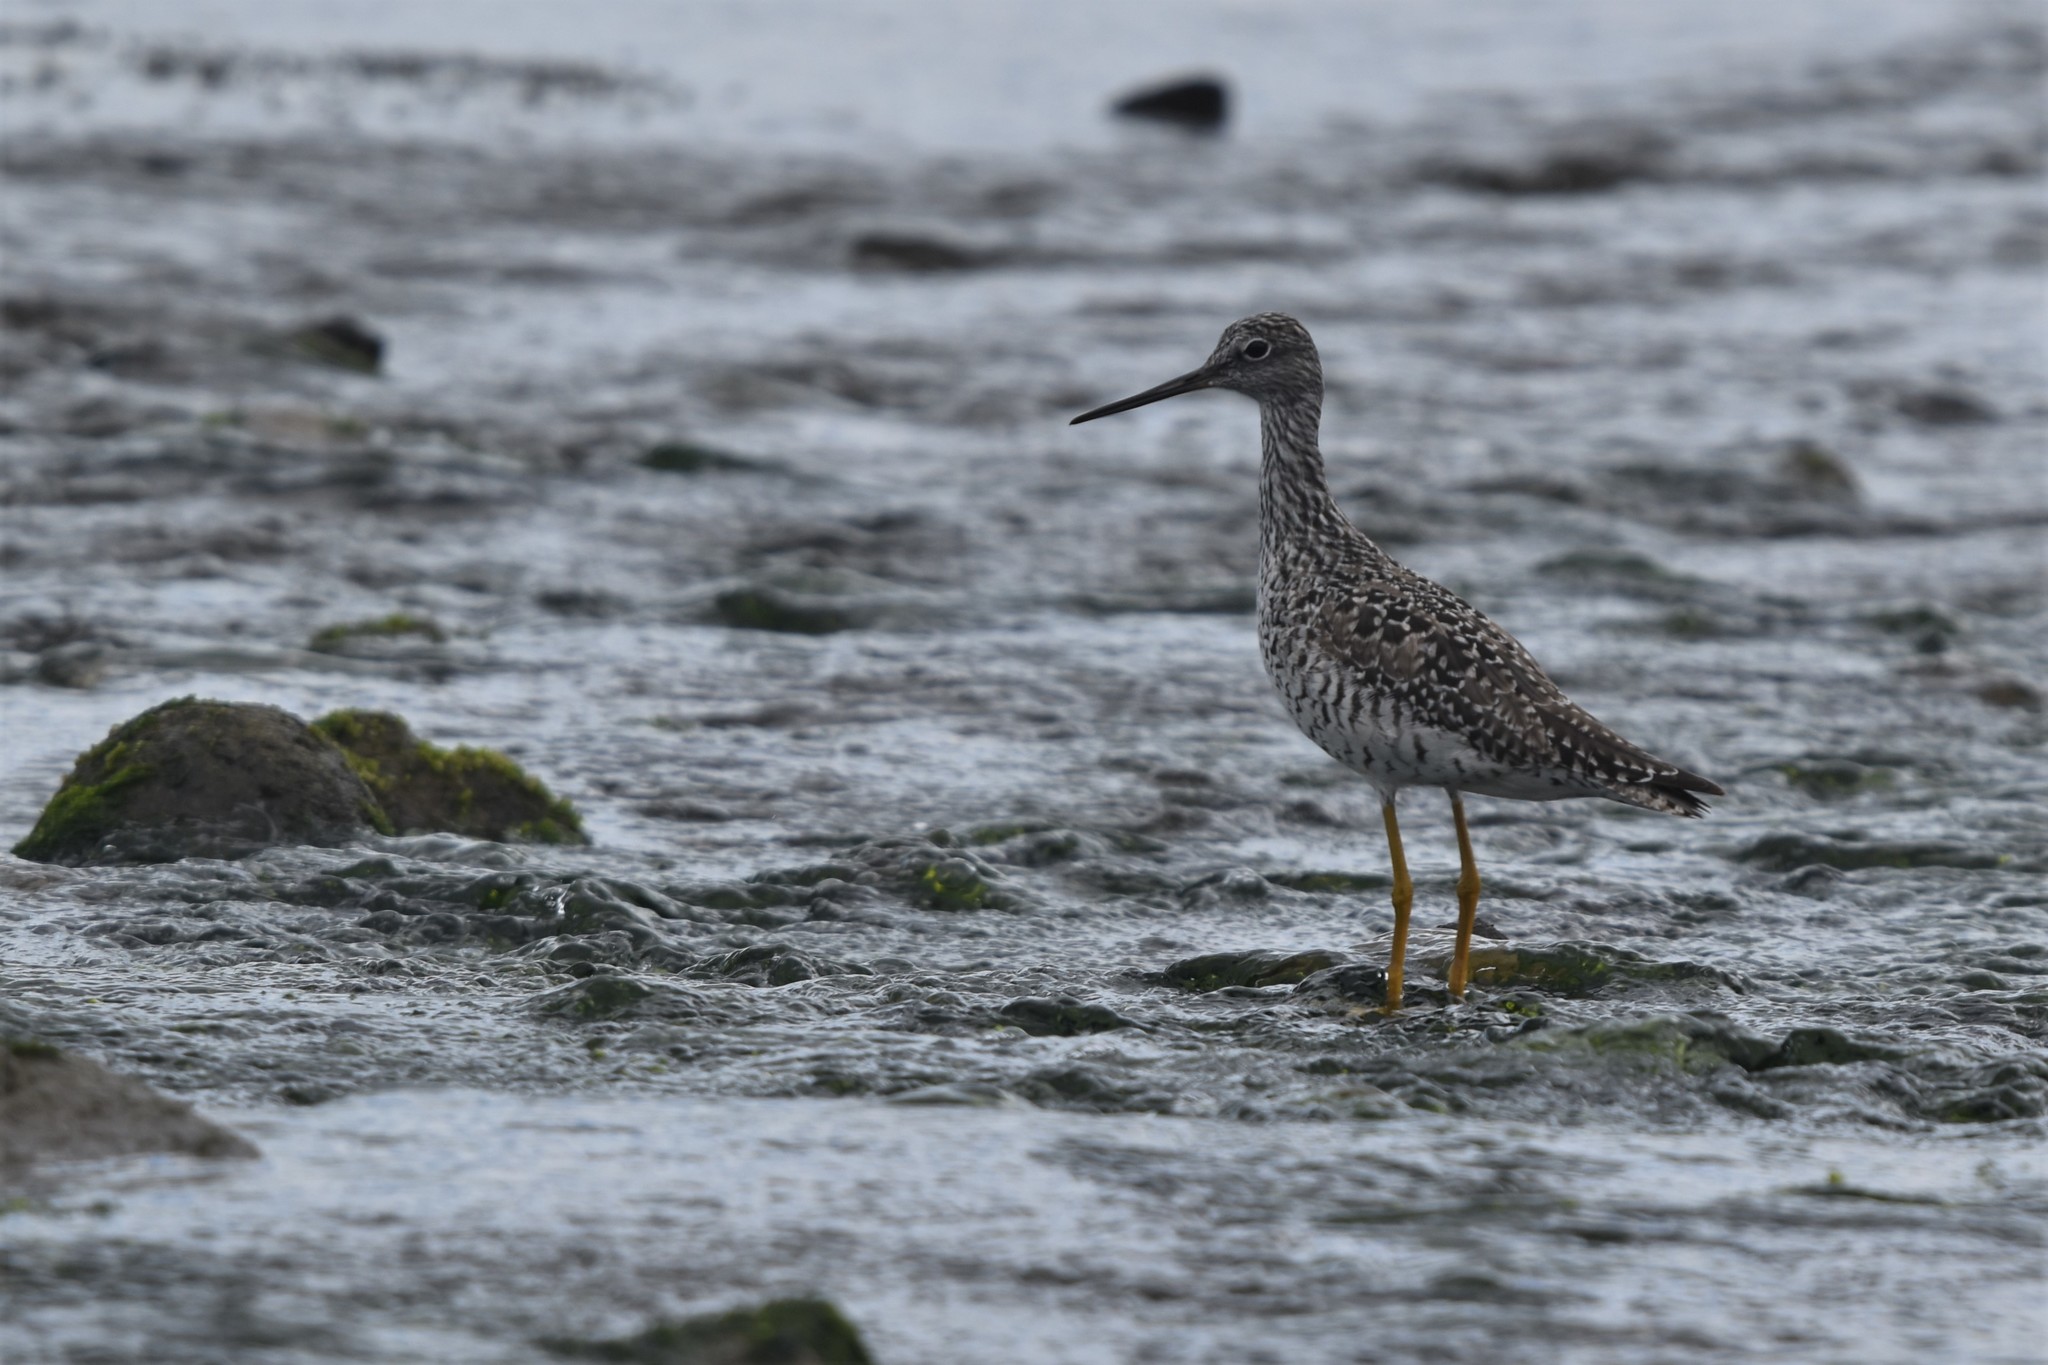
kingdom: Animalia
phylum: Chordata
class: Aves
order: Charadriiformes
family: Scolopacidae
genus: Tringa
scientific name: Tringa melanoleuca
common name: Greater yellowlegs
